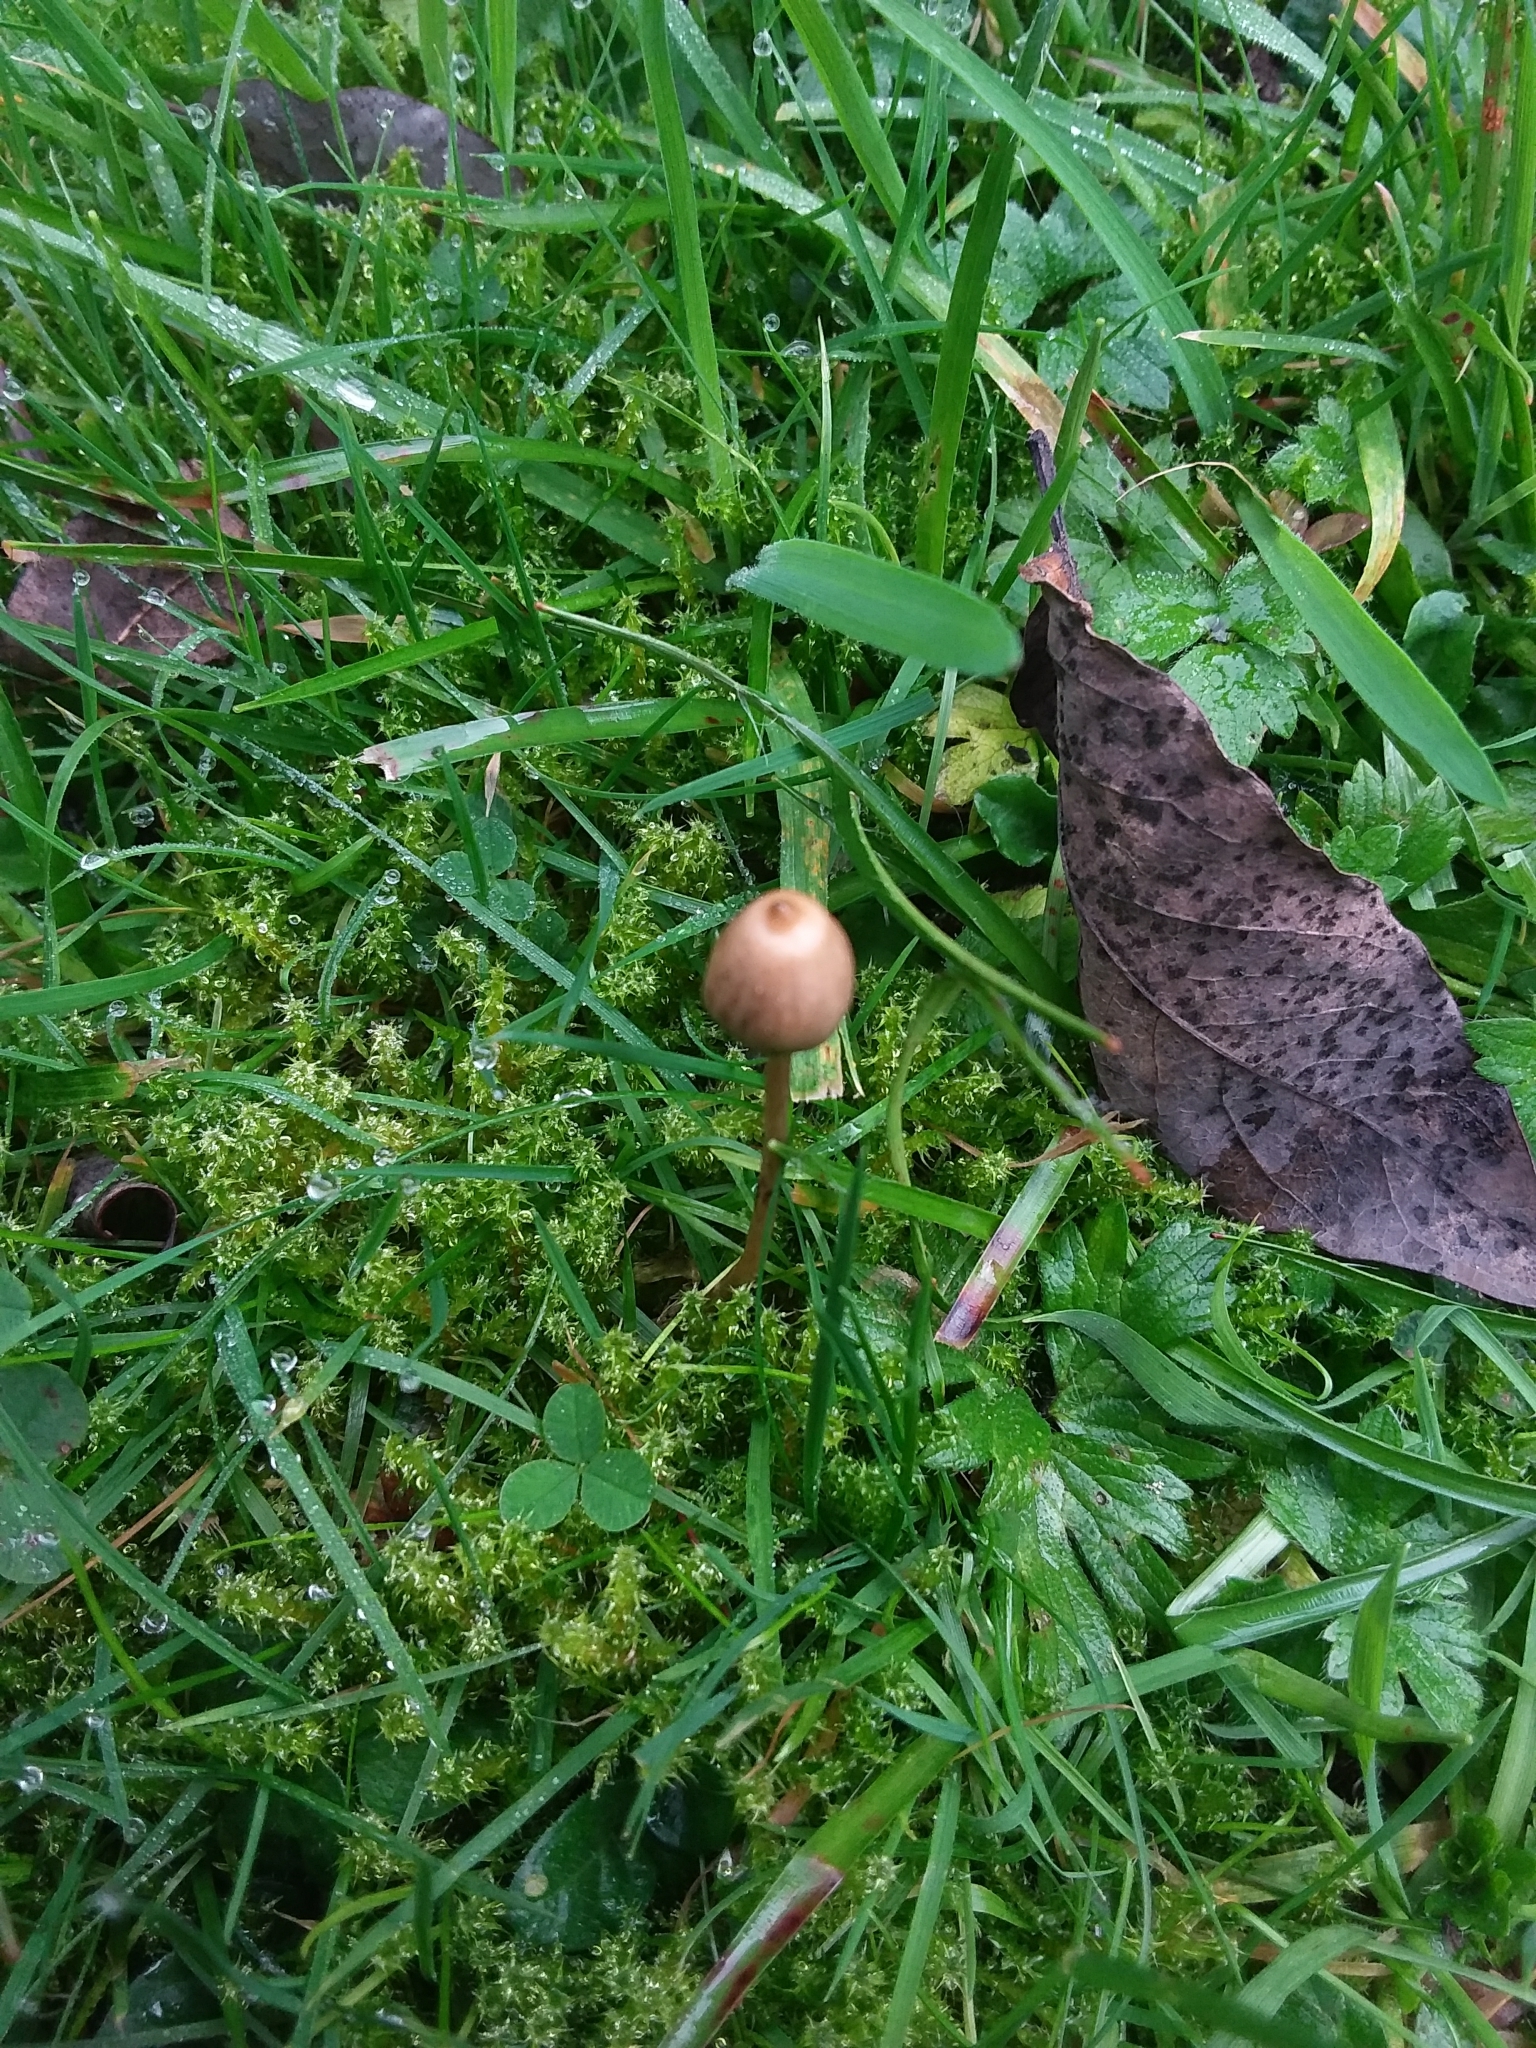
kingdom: Fungi
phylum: Basidiomycota
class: Agaricomycetes
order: Agaricales
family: Hymenogastraceae
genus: Psilocybe
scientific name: Psilocybe semilanceata
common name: Liberty cap
